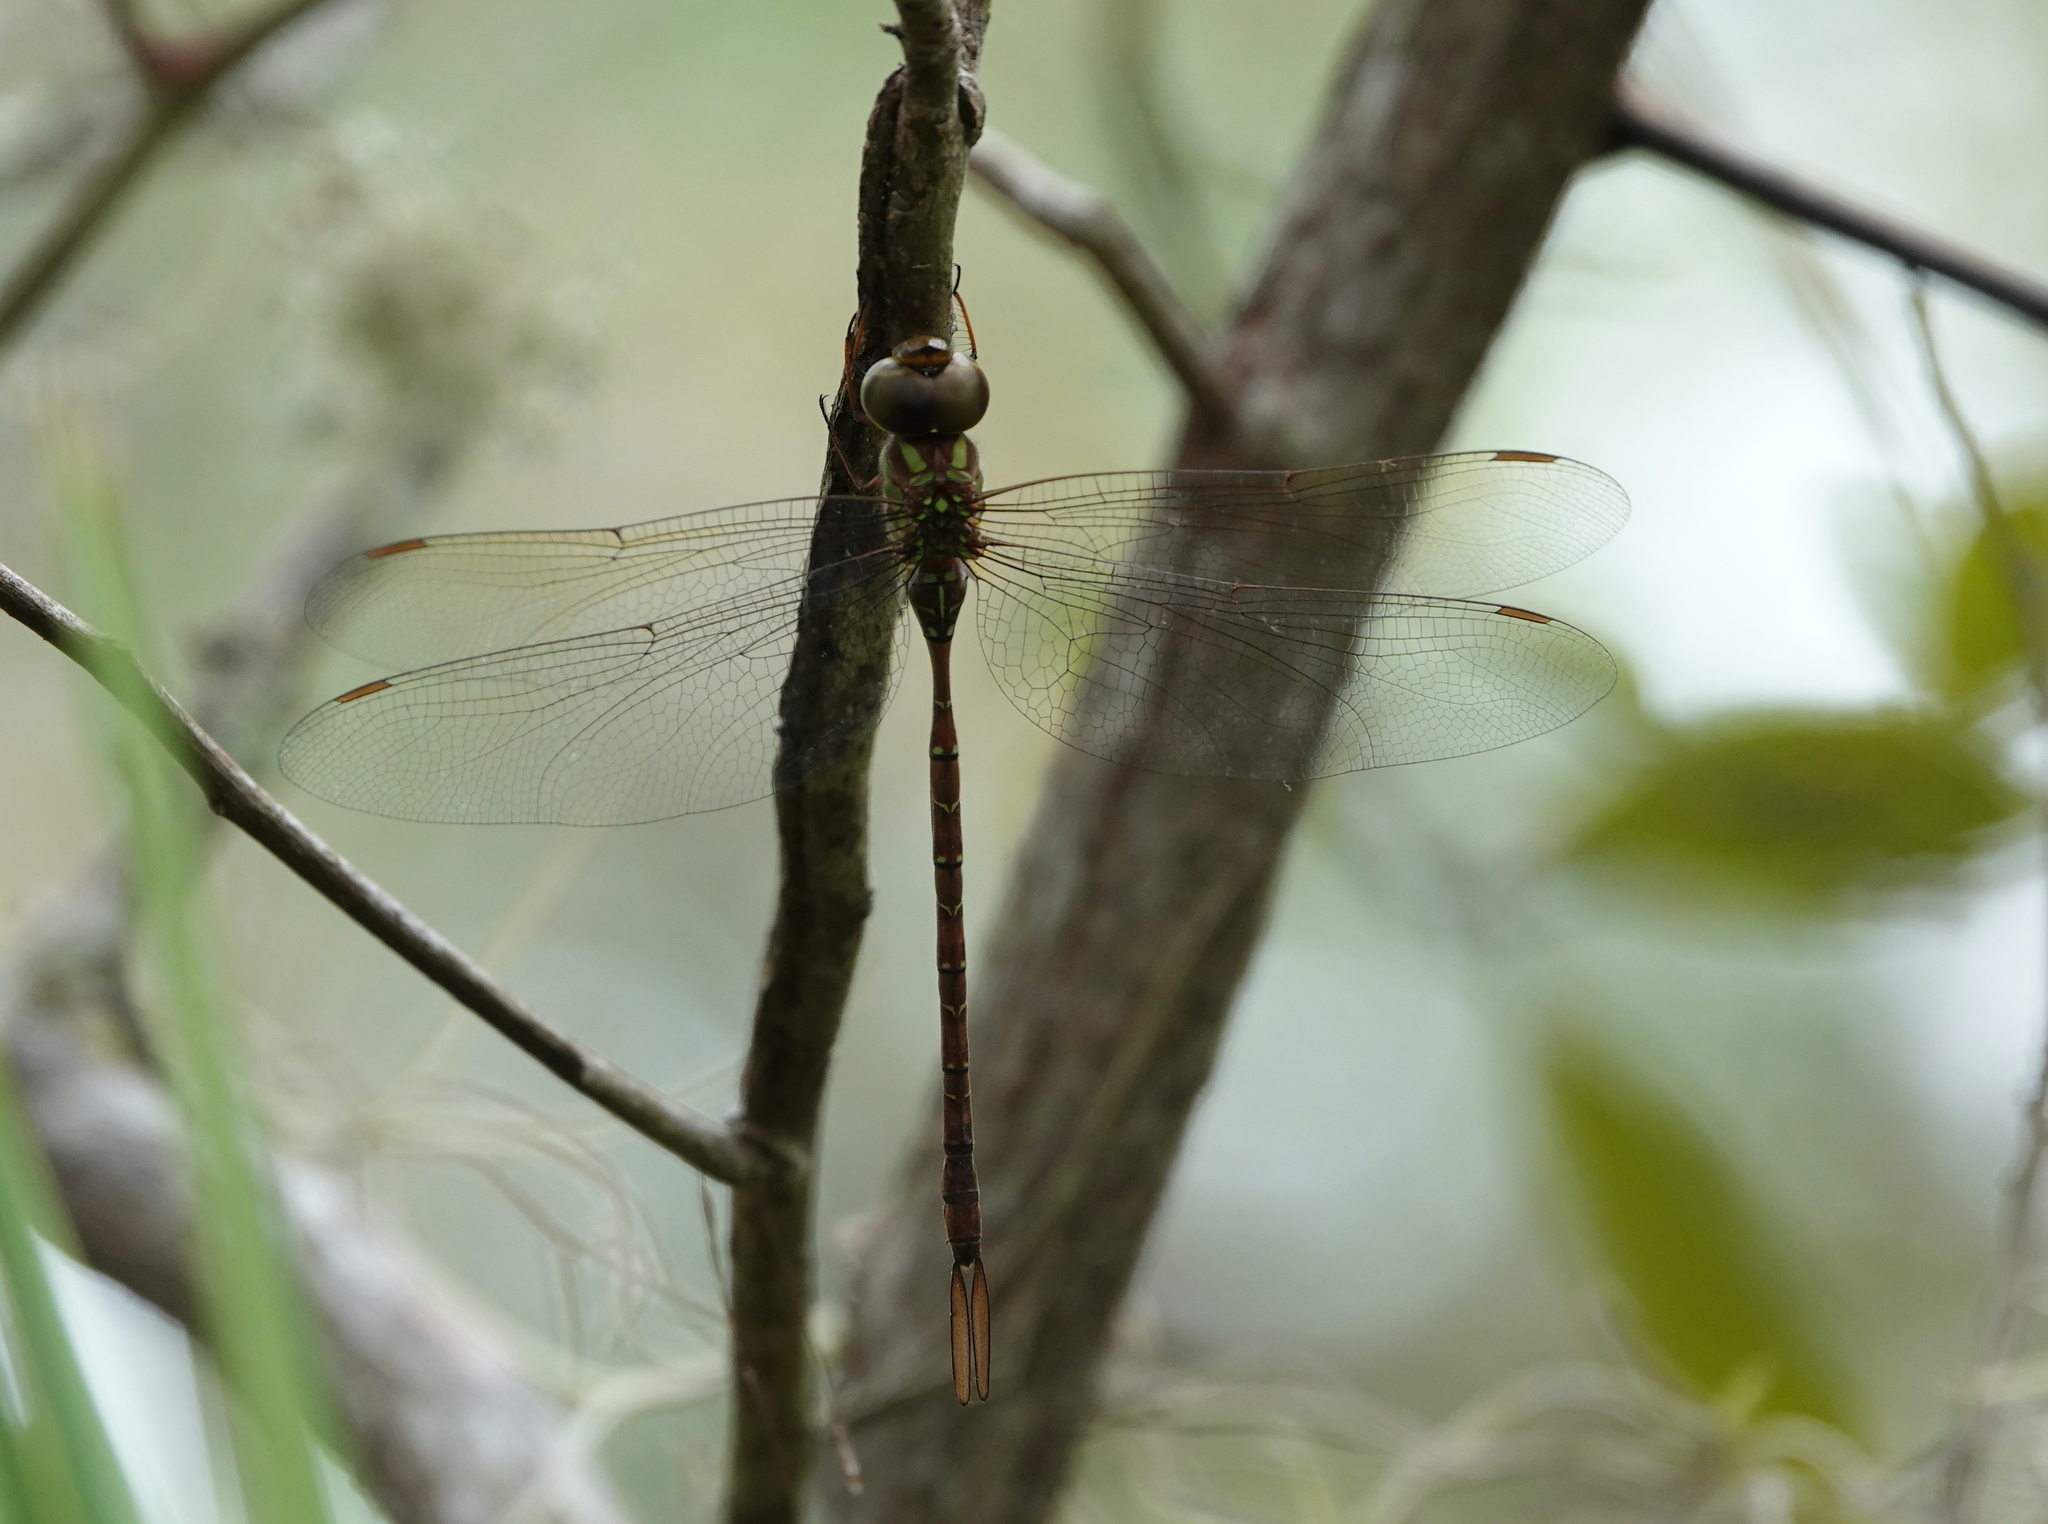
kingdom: Animalia
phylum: Arthropoda
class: Insecta
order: Odonata
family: Aeshnidae
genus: Triacanthagyna
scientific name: Triacanthagyna trifida
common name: Phantom darner
